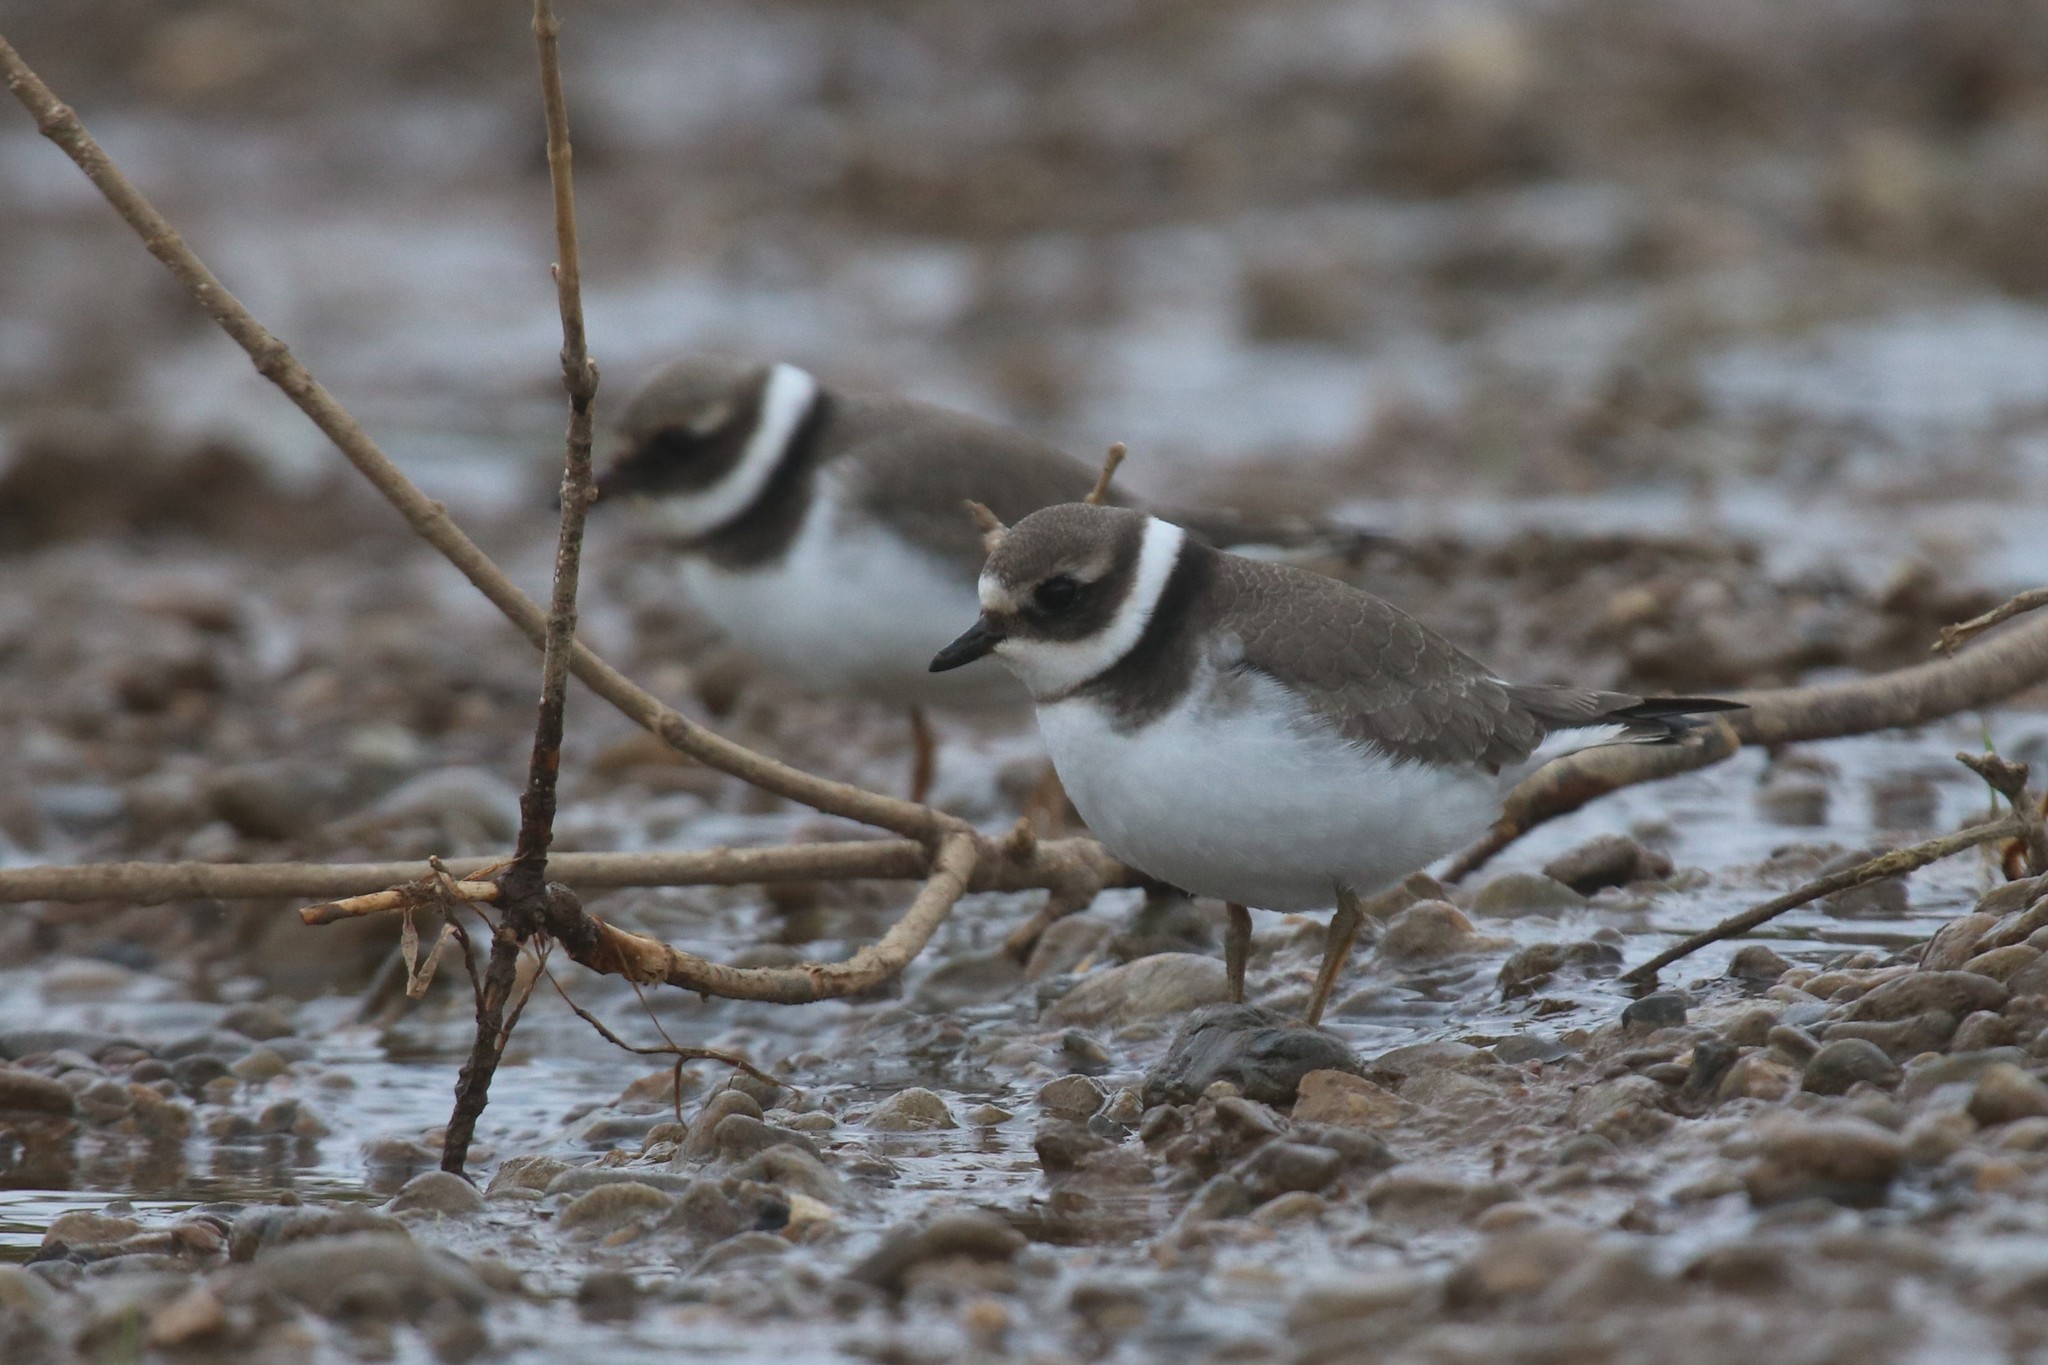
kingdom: Animalia
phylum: Chordata
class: Aves
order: Charadriiformes
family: Charadriidae
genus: Charadrius
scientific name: Charadrius hiaticula
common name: Common ringed plover
